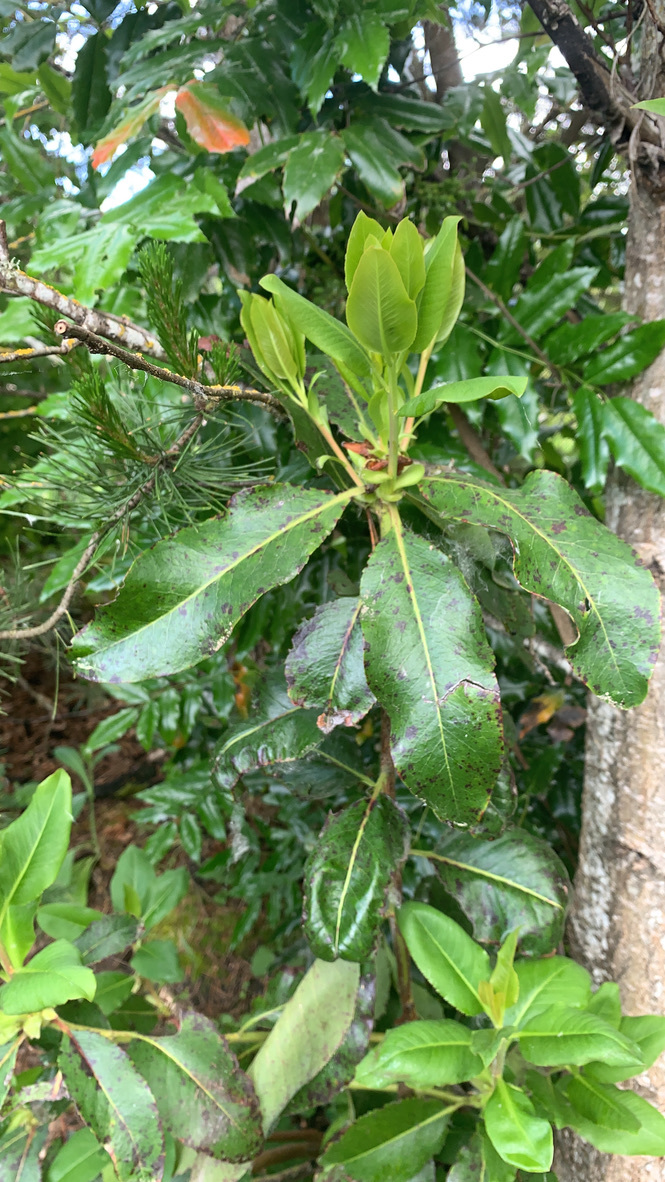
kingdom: Plantae
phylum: Tracheophyta
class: Magnoliopsida
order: Ericales
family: Ericaceae
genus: Arbutus
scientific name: Arbutus menziesii
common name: Pacific madrone
